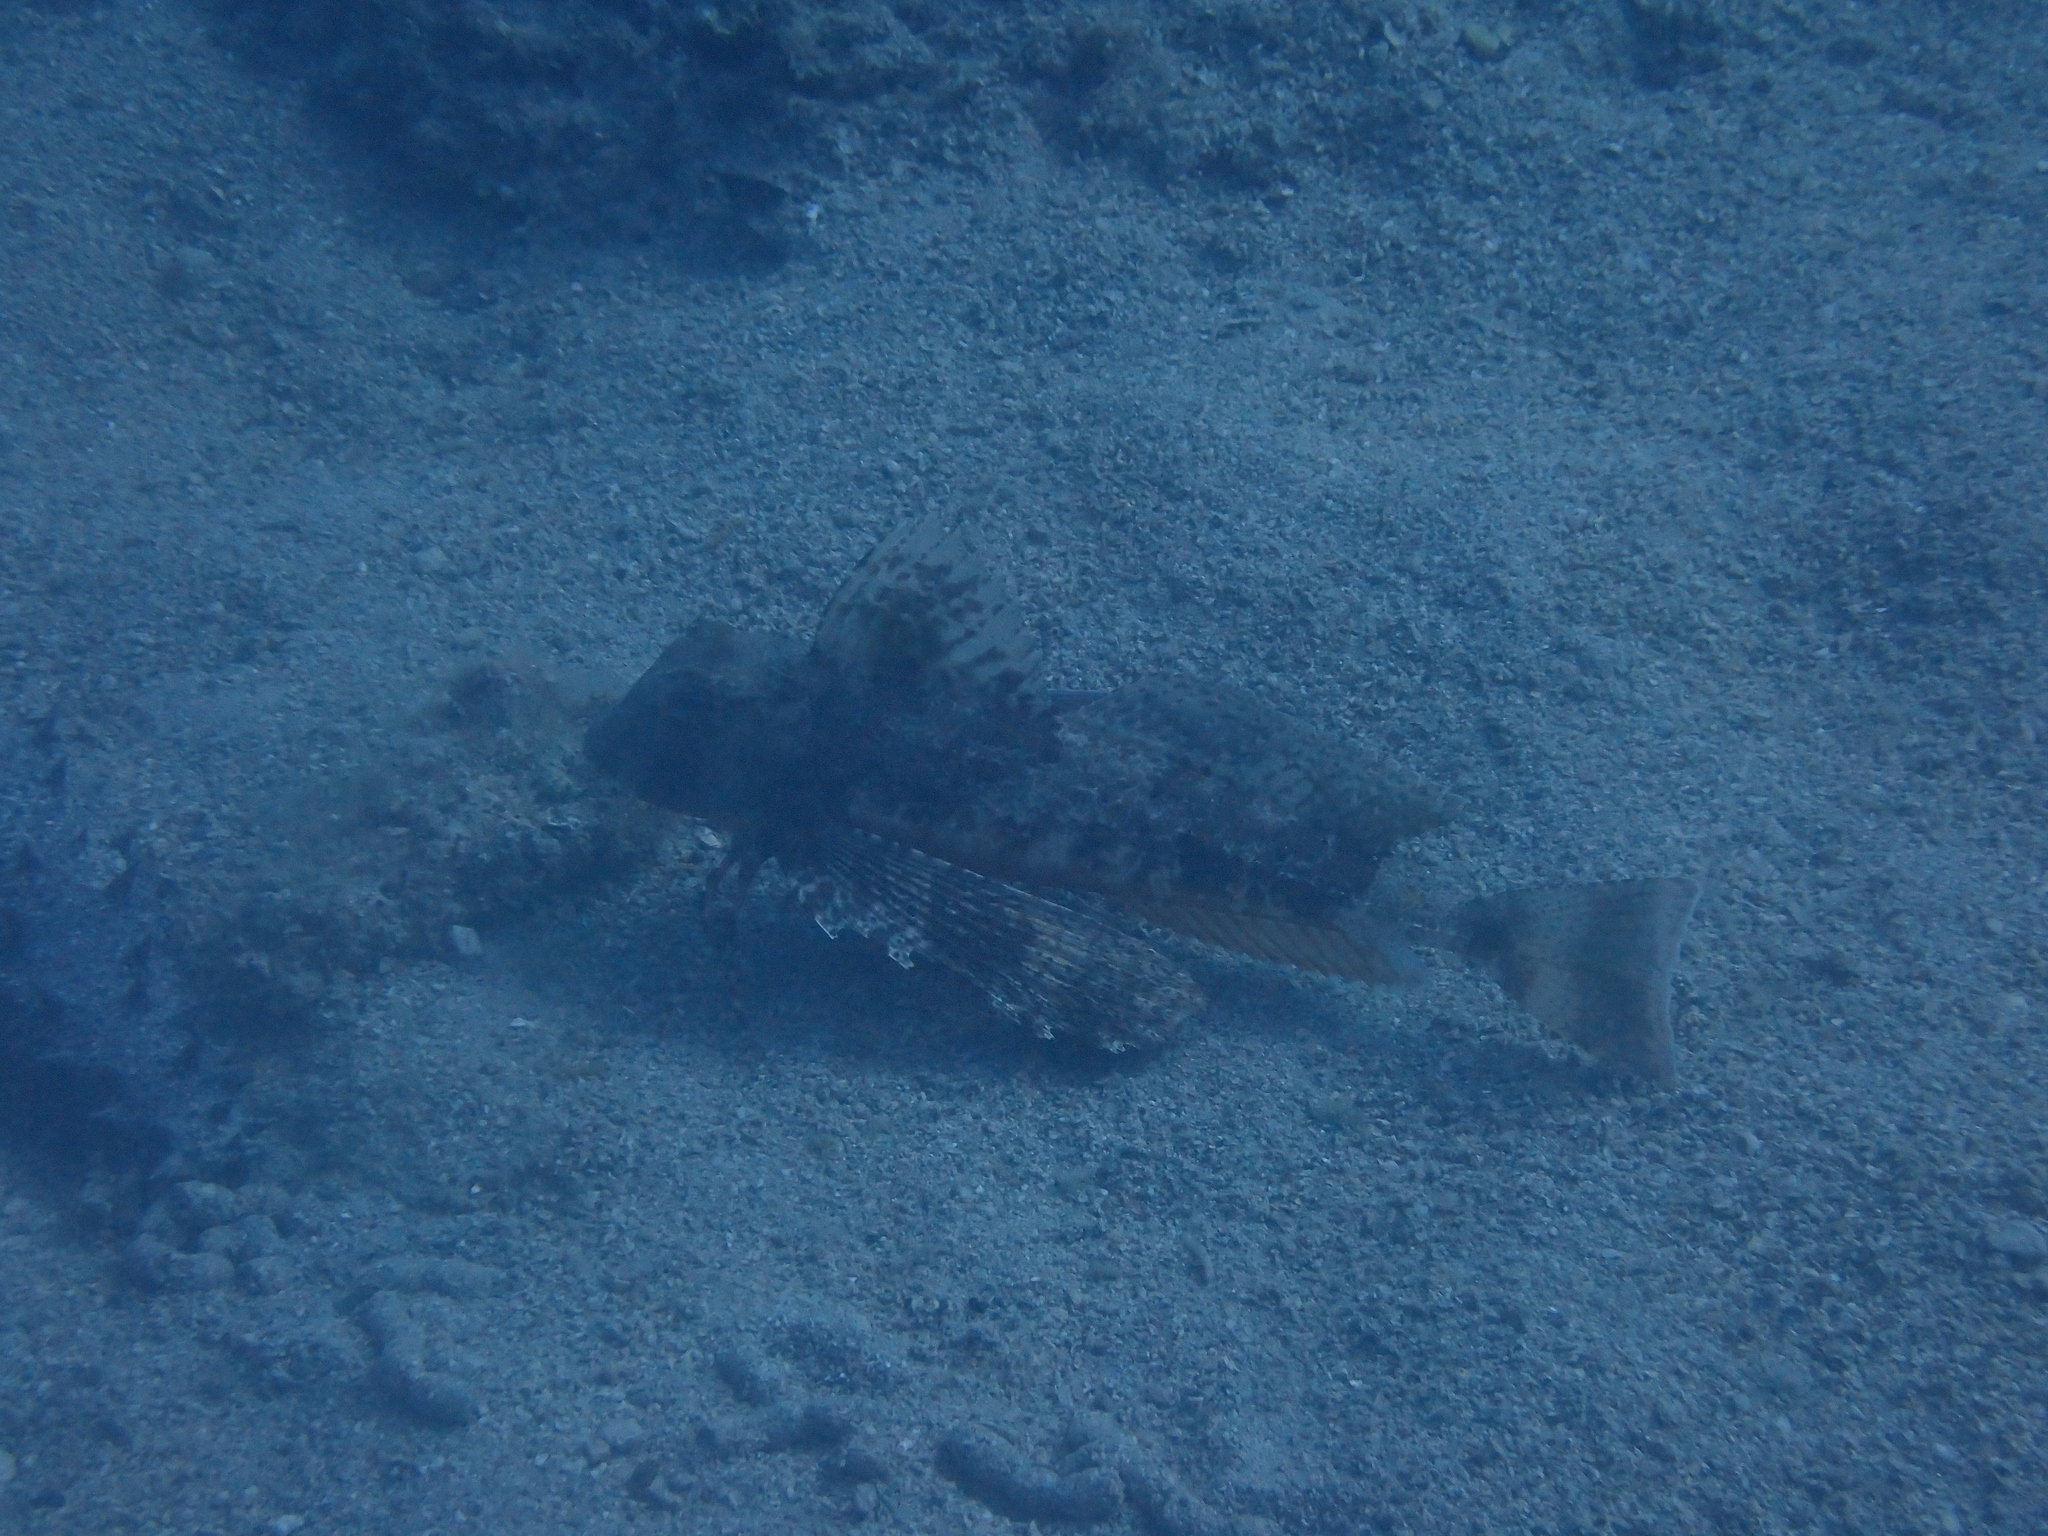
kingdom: Animalia
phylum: Chordata
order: Scorpaeniformes
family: Triglidae
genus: Chelidonichthys
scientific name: Chelidonichthys lastoviza
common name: Streaked gurnard
